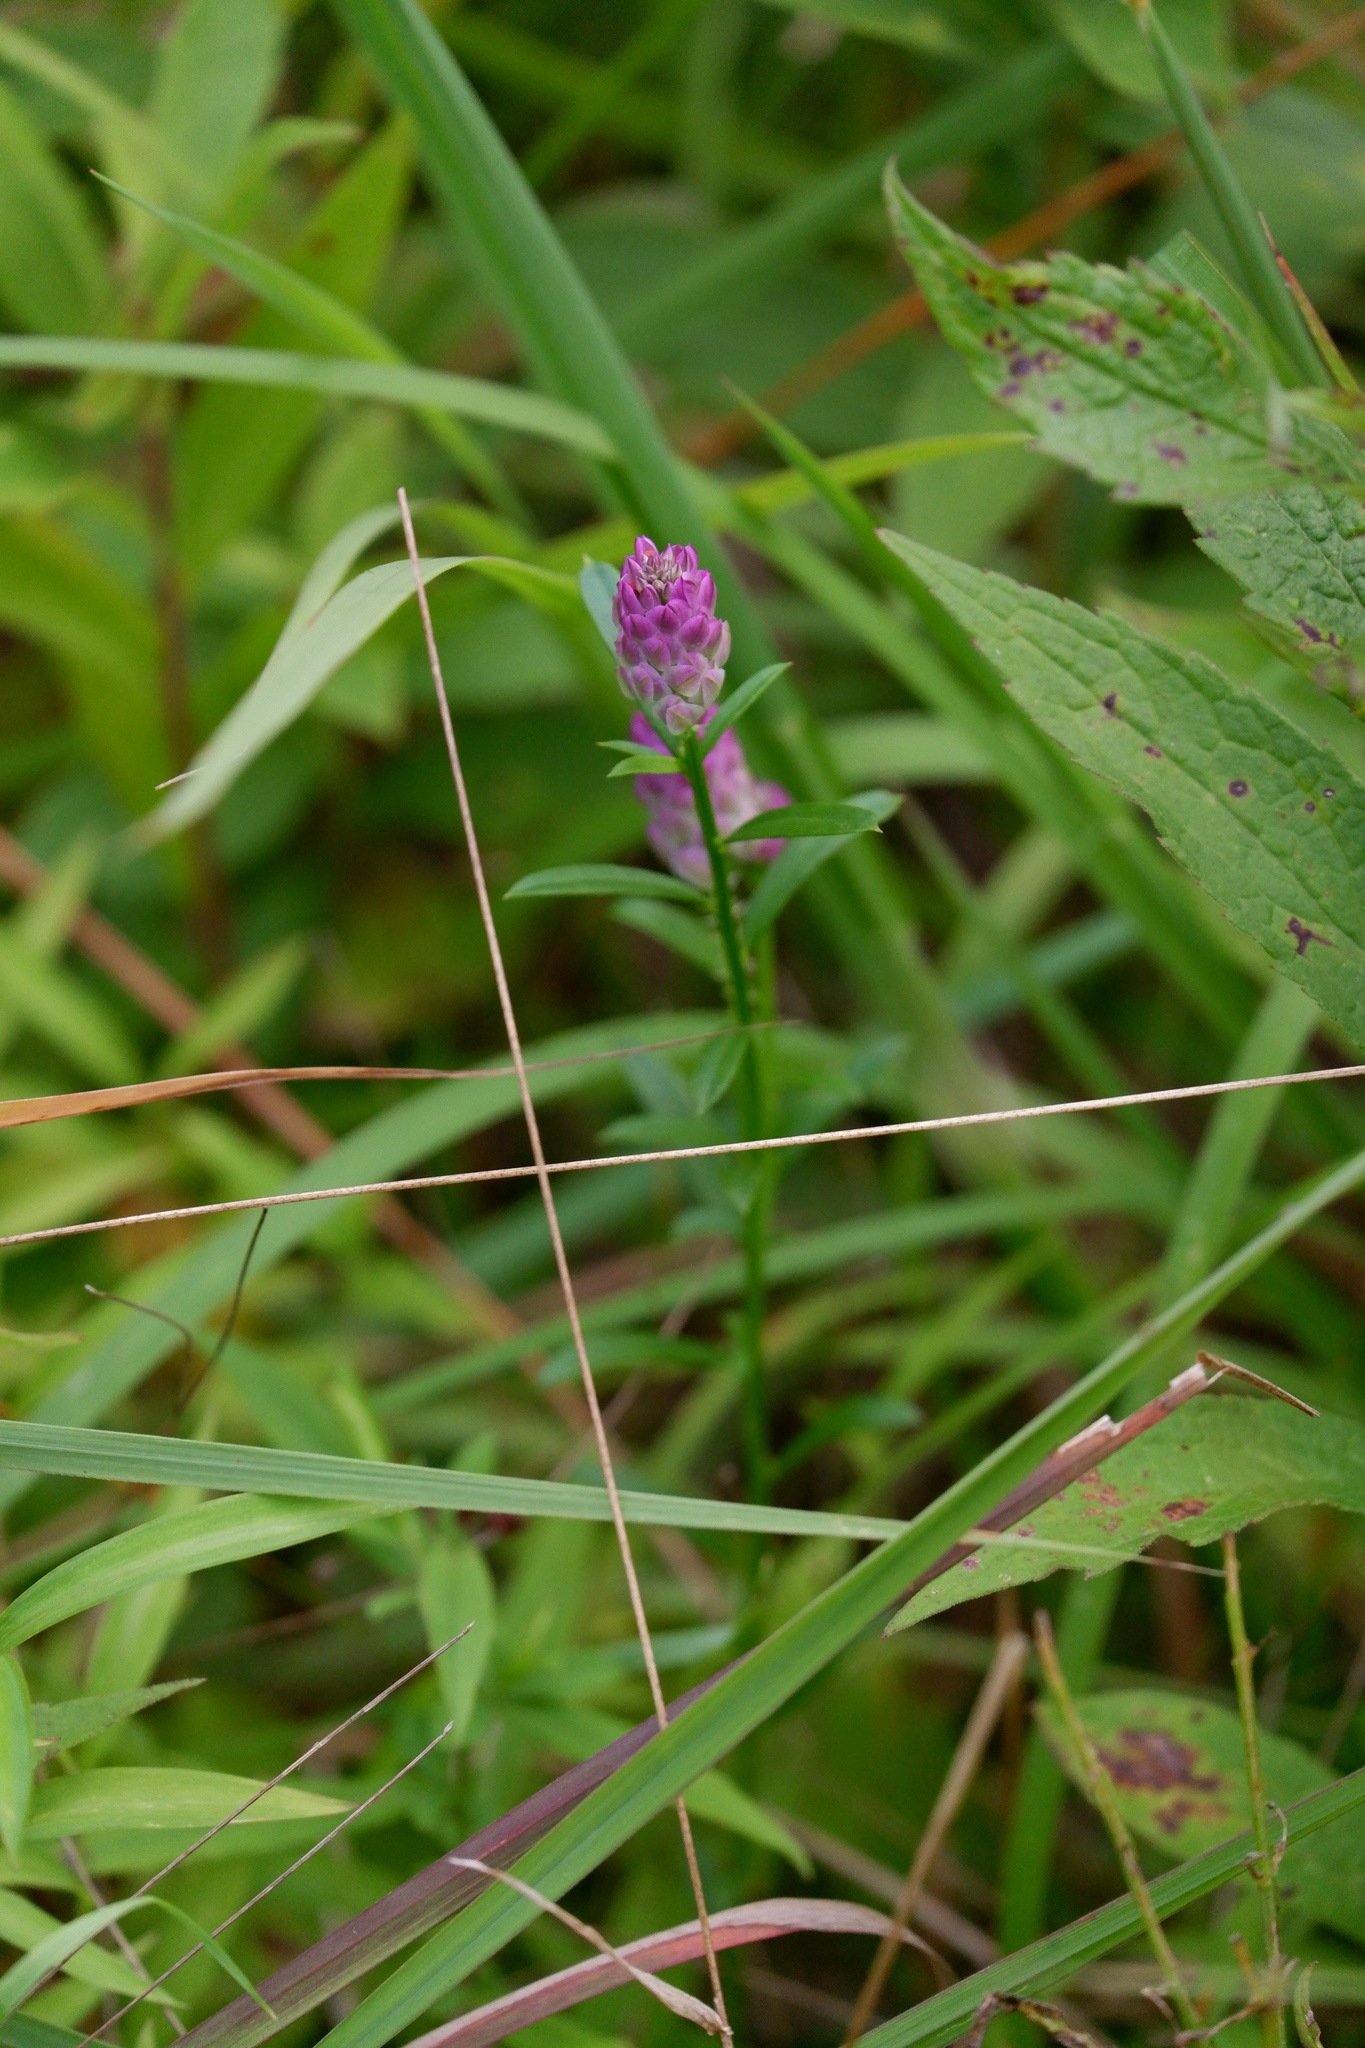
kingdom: Plantae
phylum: Tracheophyta
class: Magnoliopsida
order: Fabales
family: Polygalaceae
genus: Polygala
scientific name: Polygala sanguinea
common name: Blood milkwort
